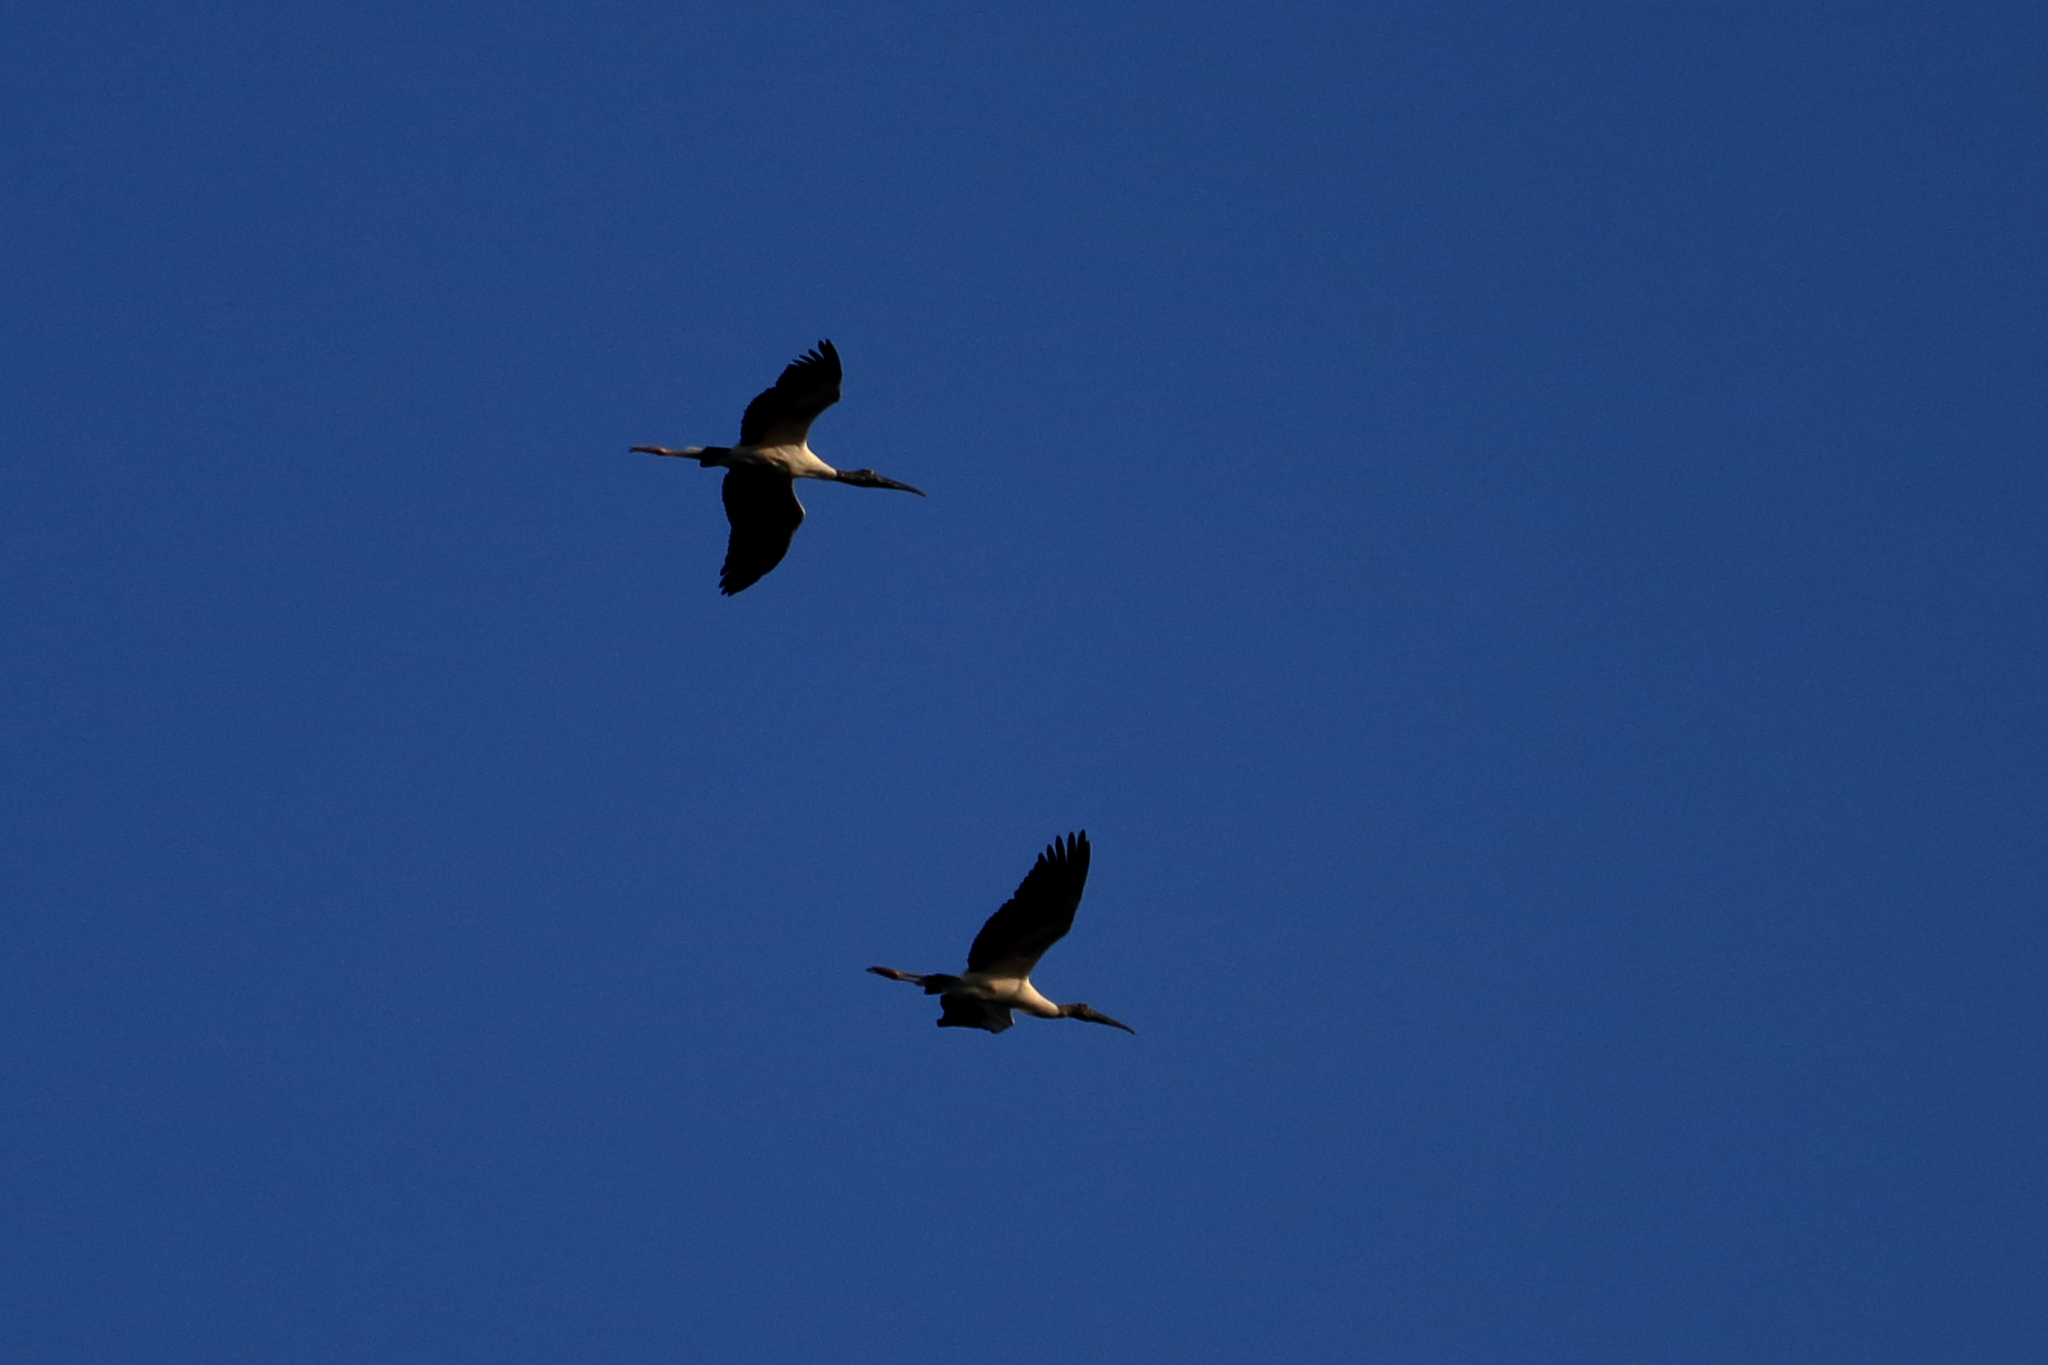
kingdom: Animalia
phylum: Chordata
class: Aves
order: Ciconiiformes
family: Ciconiidae
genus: Mycteria
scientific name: Mycteria americana
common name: Wood stork
